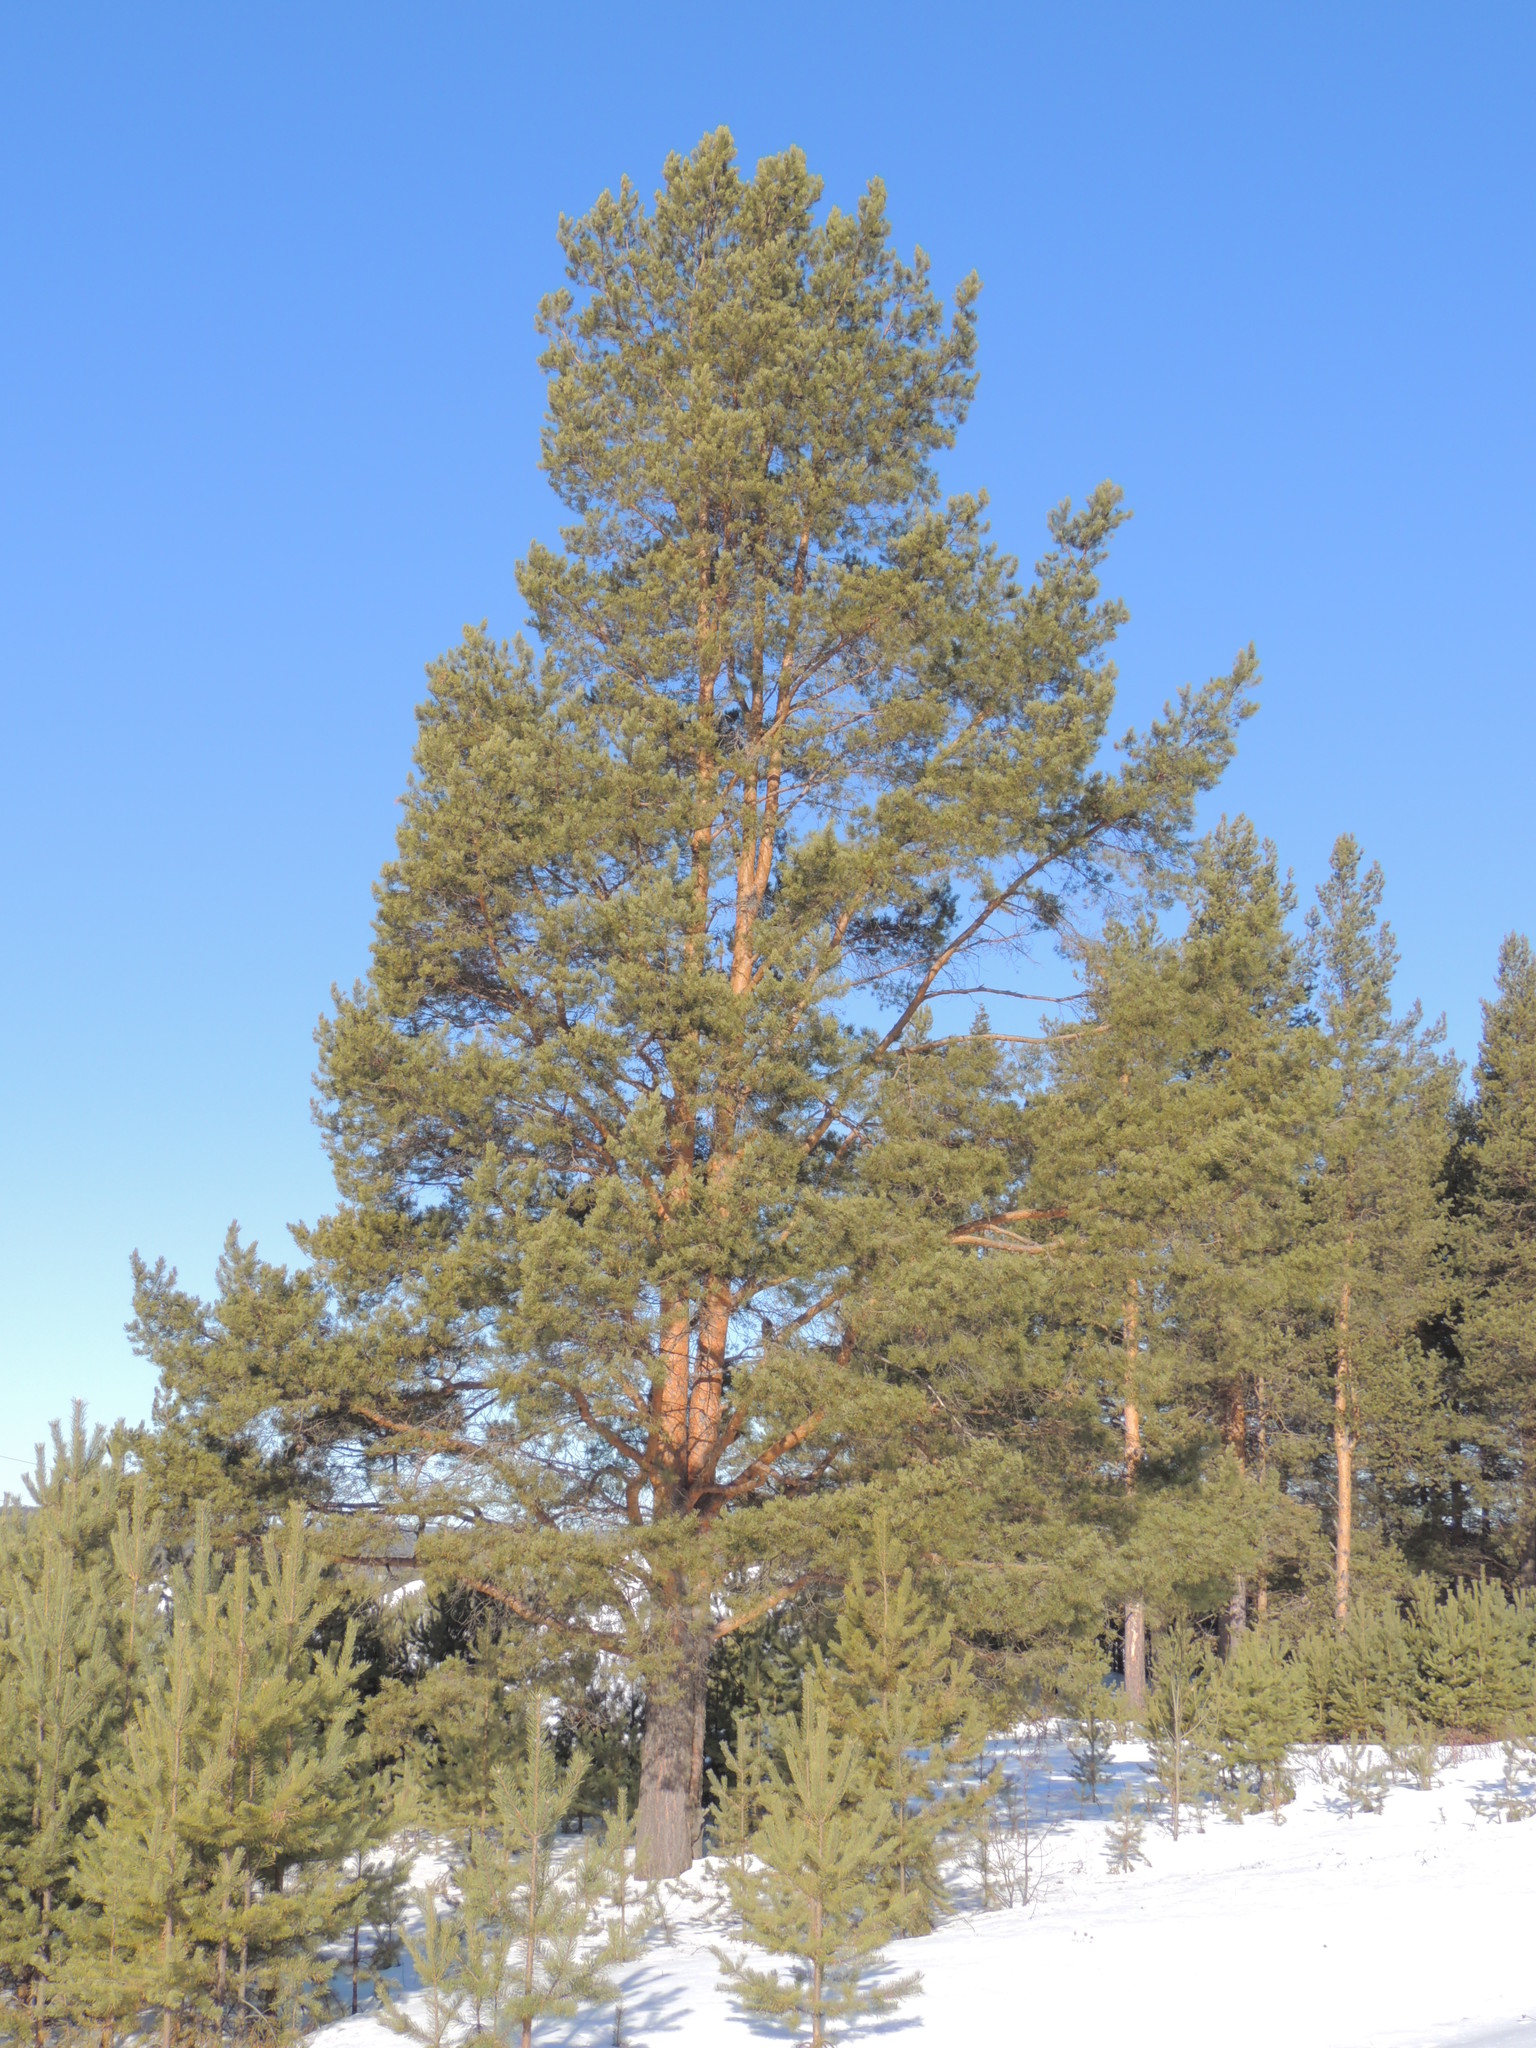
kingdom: Plantae
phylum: Tracheophyta
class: Pinopsida
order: Pinales
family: Pinaceae
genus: Pinus
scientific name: Pinus sylvestris
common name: Scots pine
